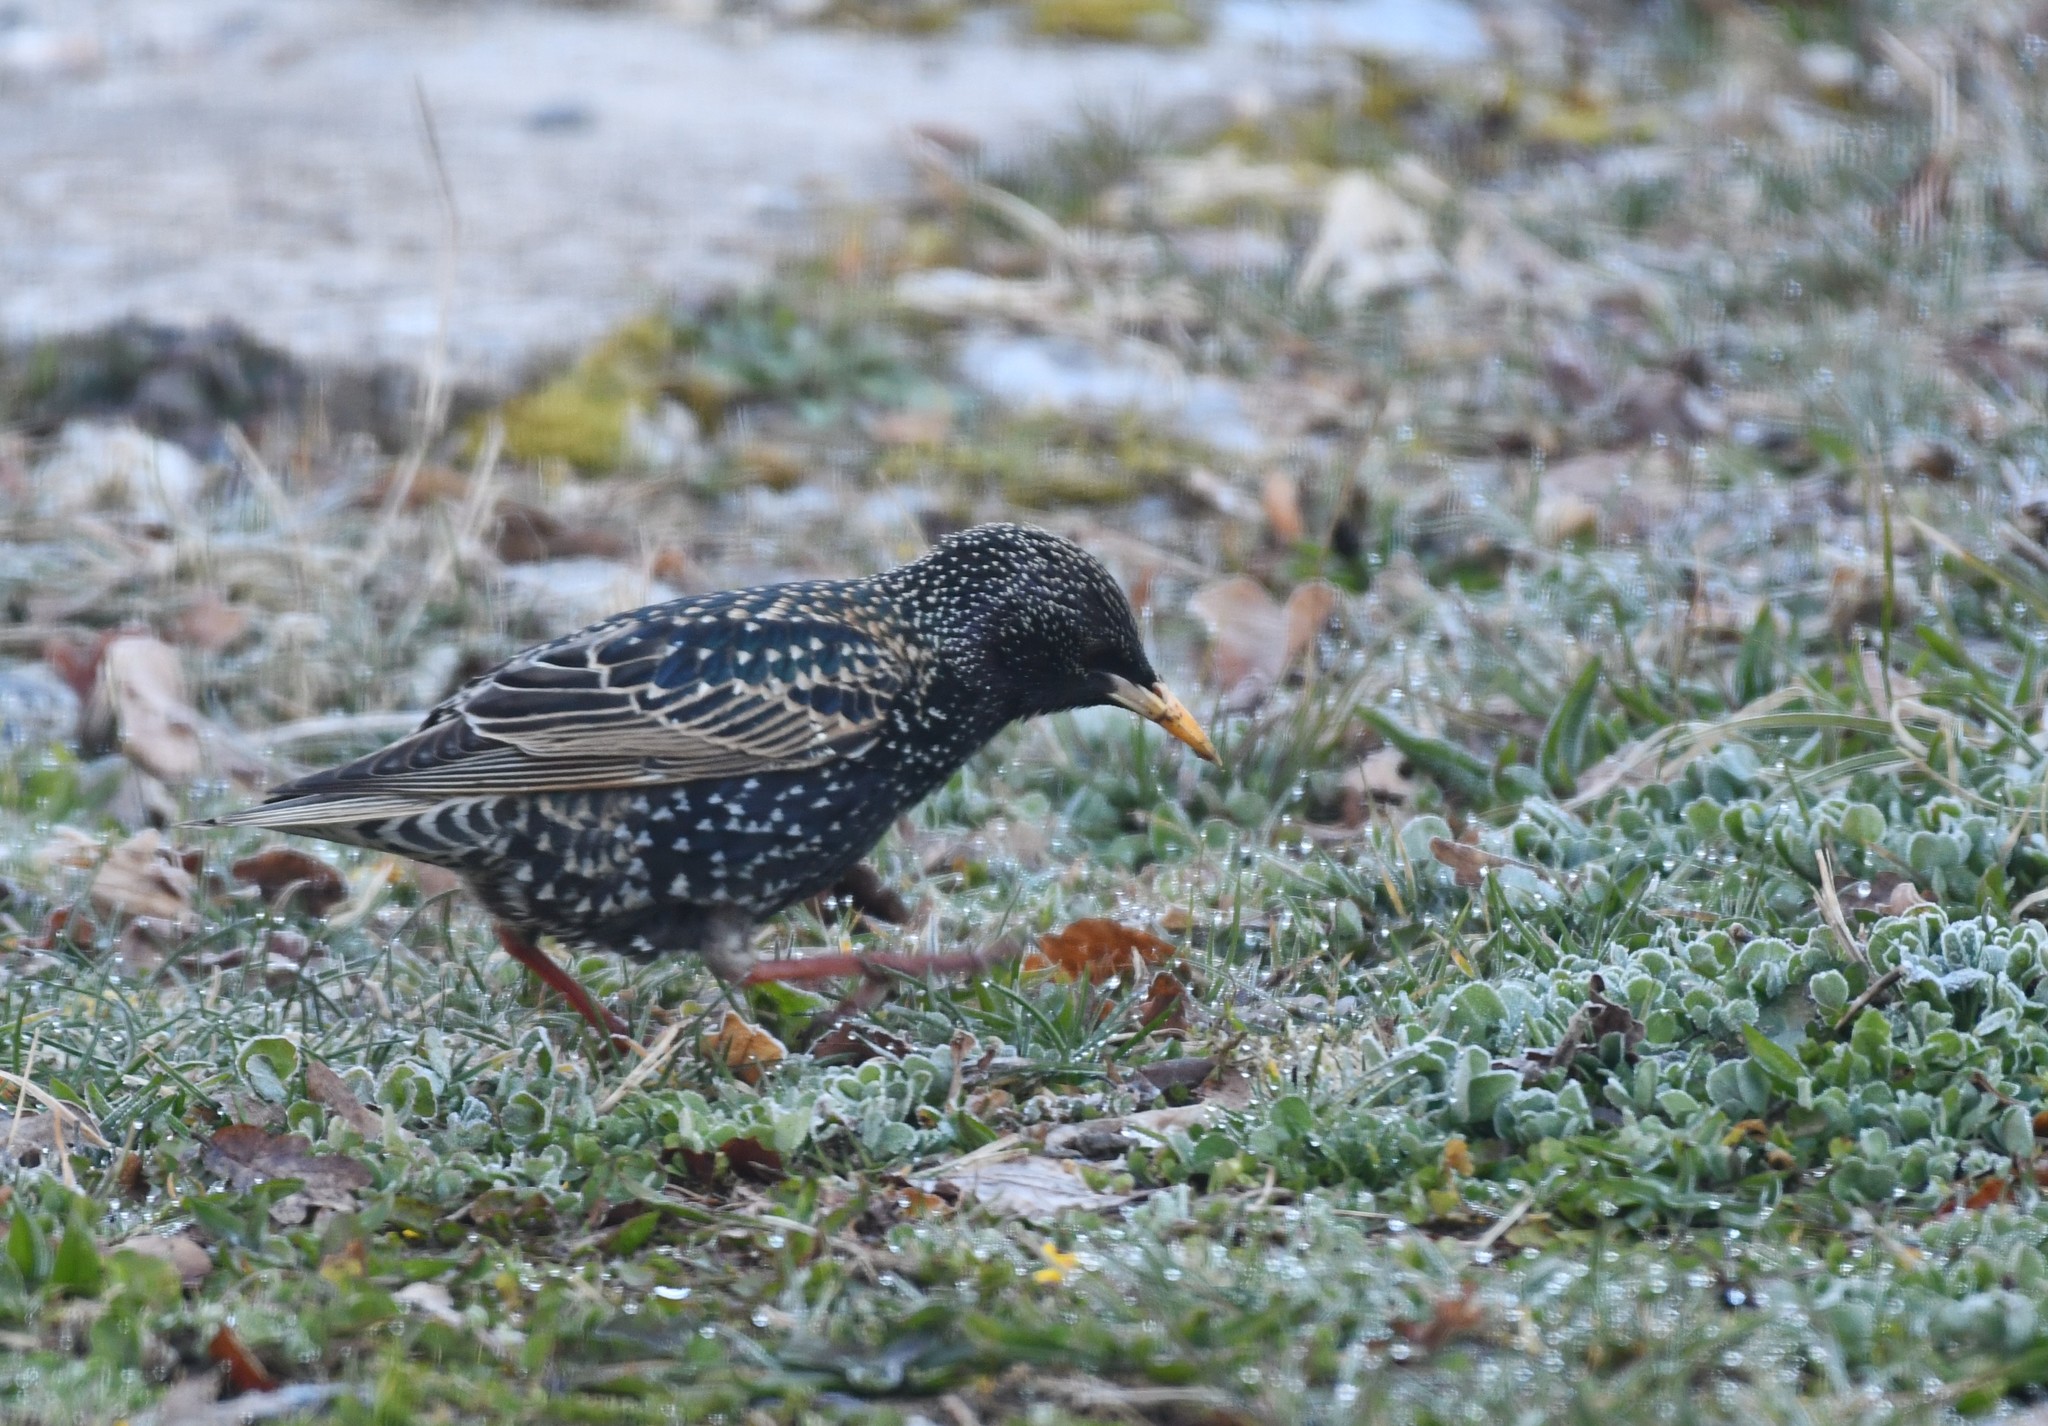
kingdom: Animalia
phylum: Chordata
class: Aves
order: Passeriformes
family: Sturnidae
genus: Sturnus
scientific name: Sturnus vulgaris
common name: Common starling
